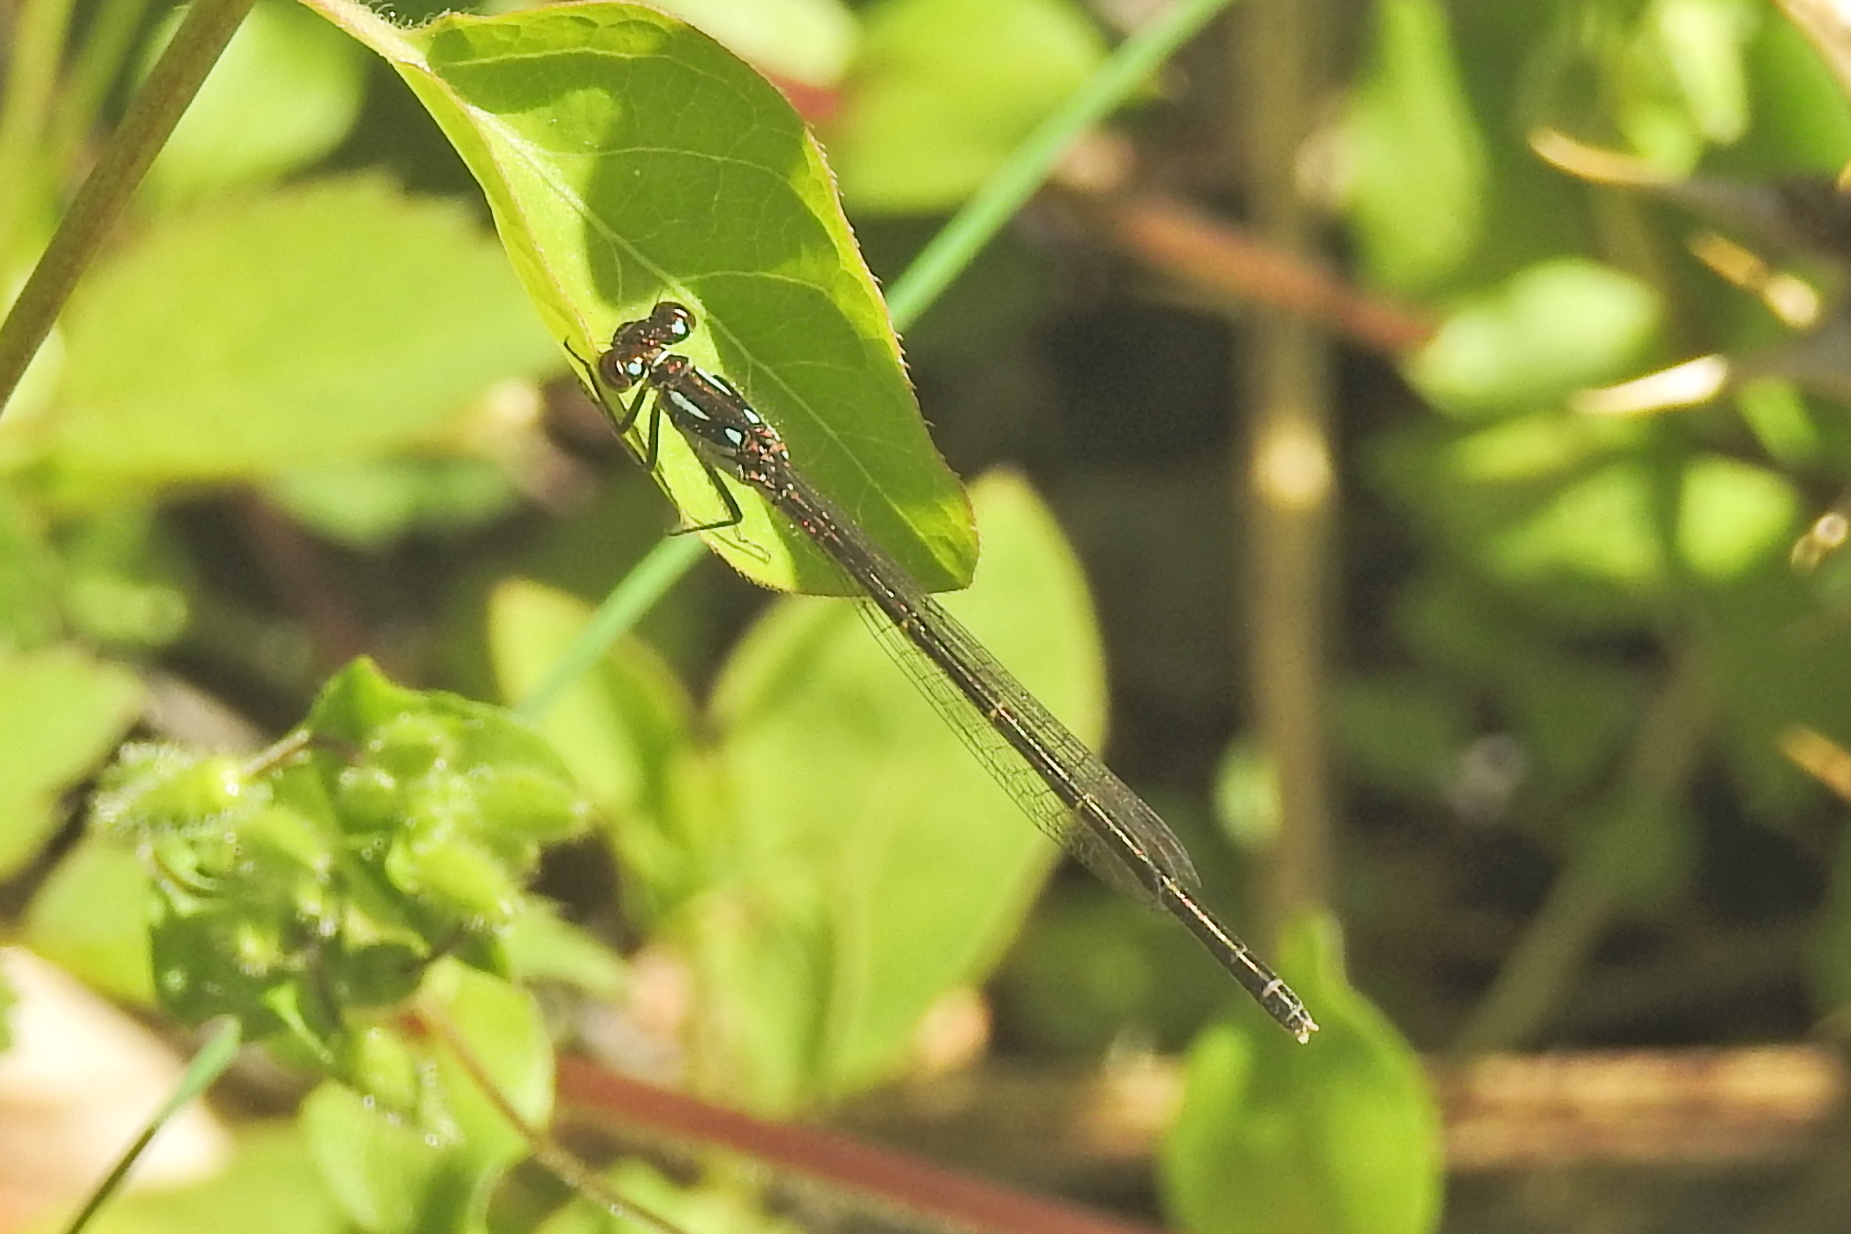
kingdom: Animalia
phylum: Arthropoda
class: Insecta
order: Odonata
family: Coenagrionidae
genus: Ischnura
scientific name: Ischnura posita
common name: Fragile forktail
